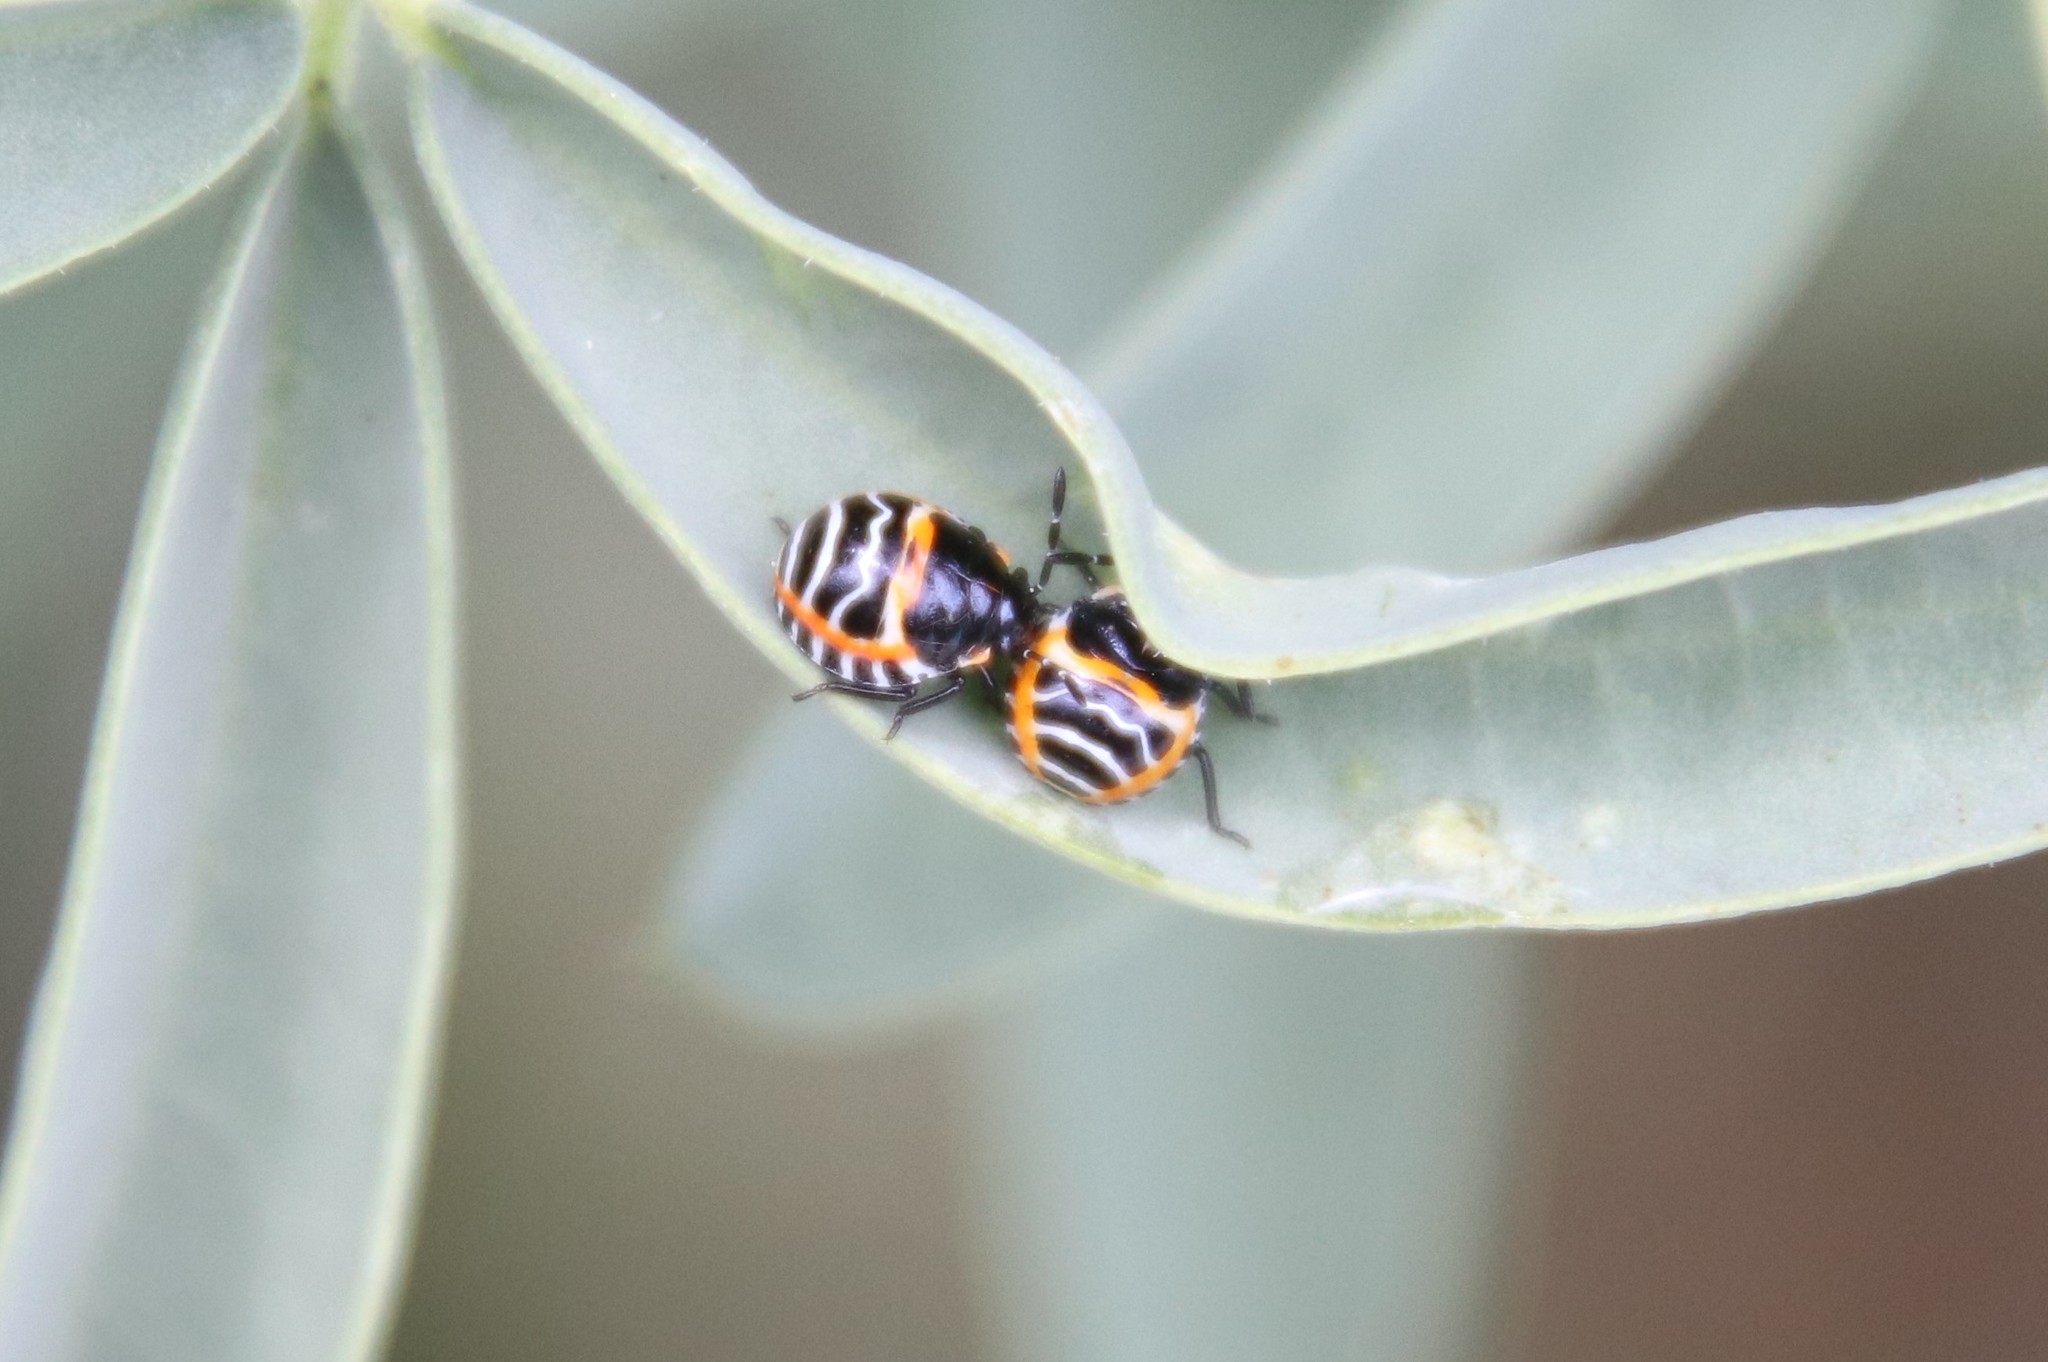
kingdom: Animalia
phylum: Arthropoda
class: Insecta
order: Hemiptera
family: Pentatomidae
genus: Murgantia
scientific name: Murgantia histrionica
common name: Harlequin bug
